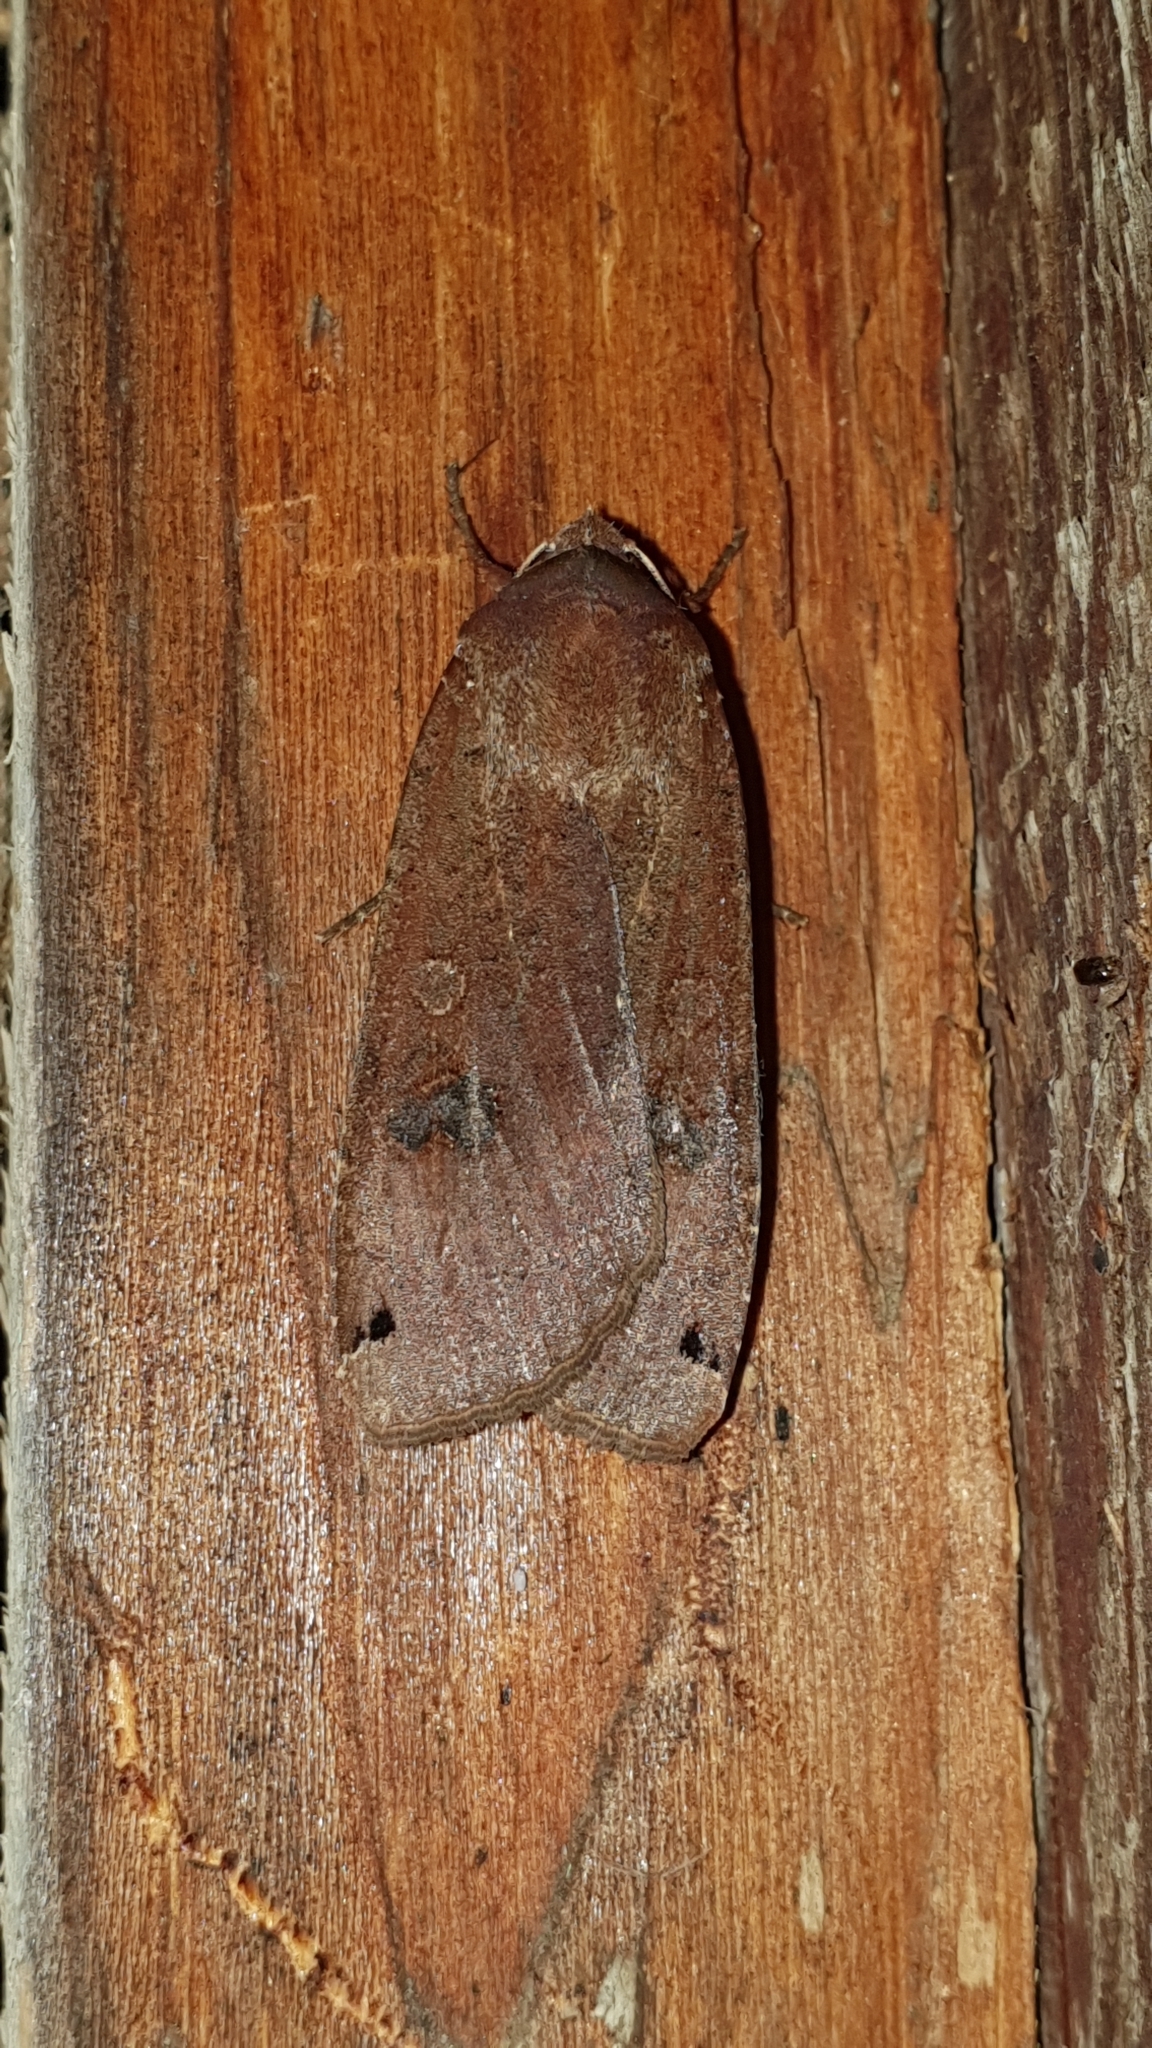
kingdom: Animalia
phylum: Arthropoda
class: Insecta
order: Lepidoptera
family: Noctuidae
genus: Noctua
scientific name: Noctua pronuba
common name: Large yellow underwing
